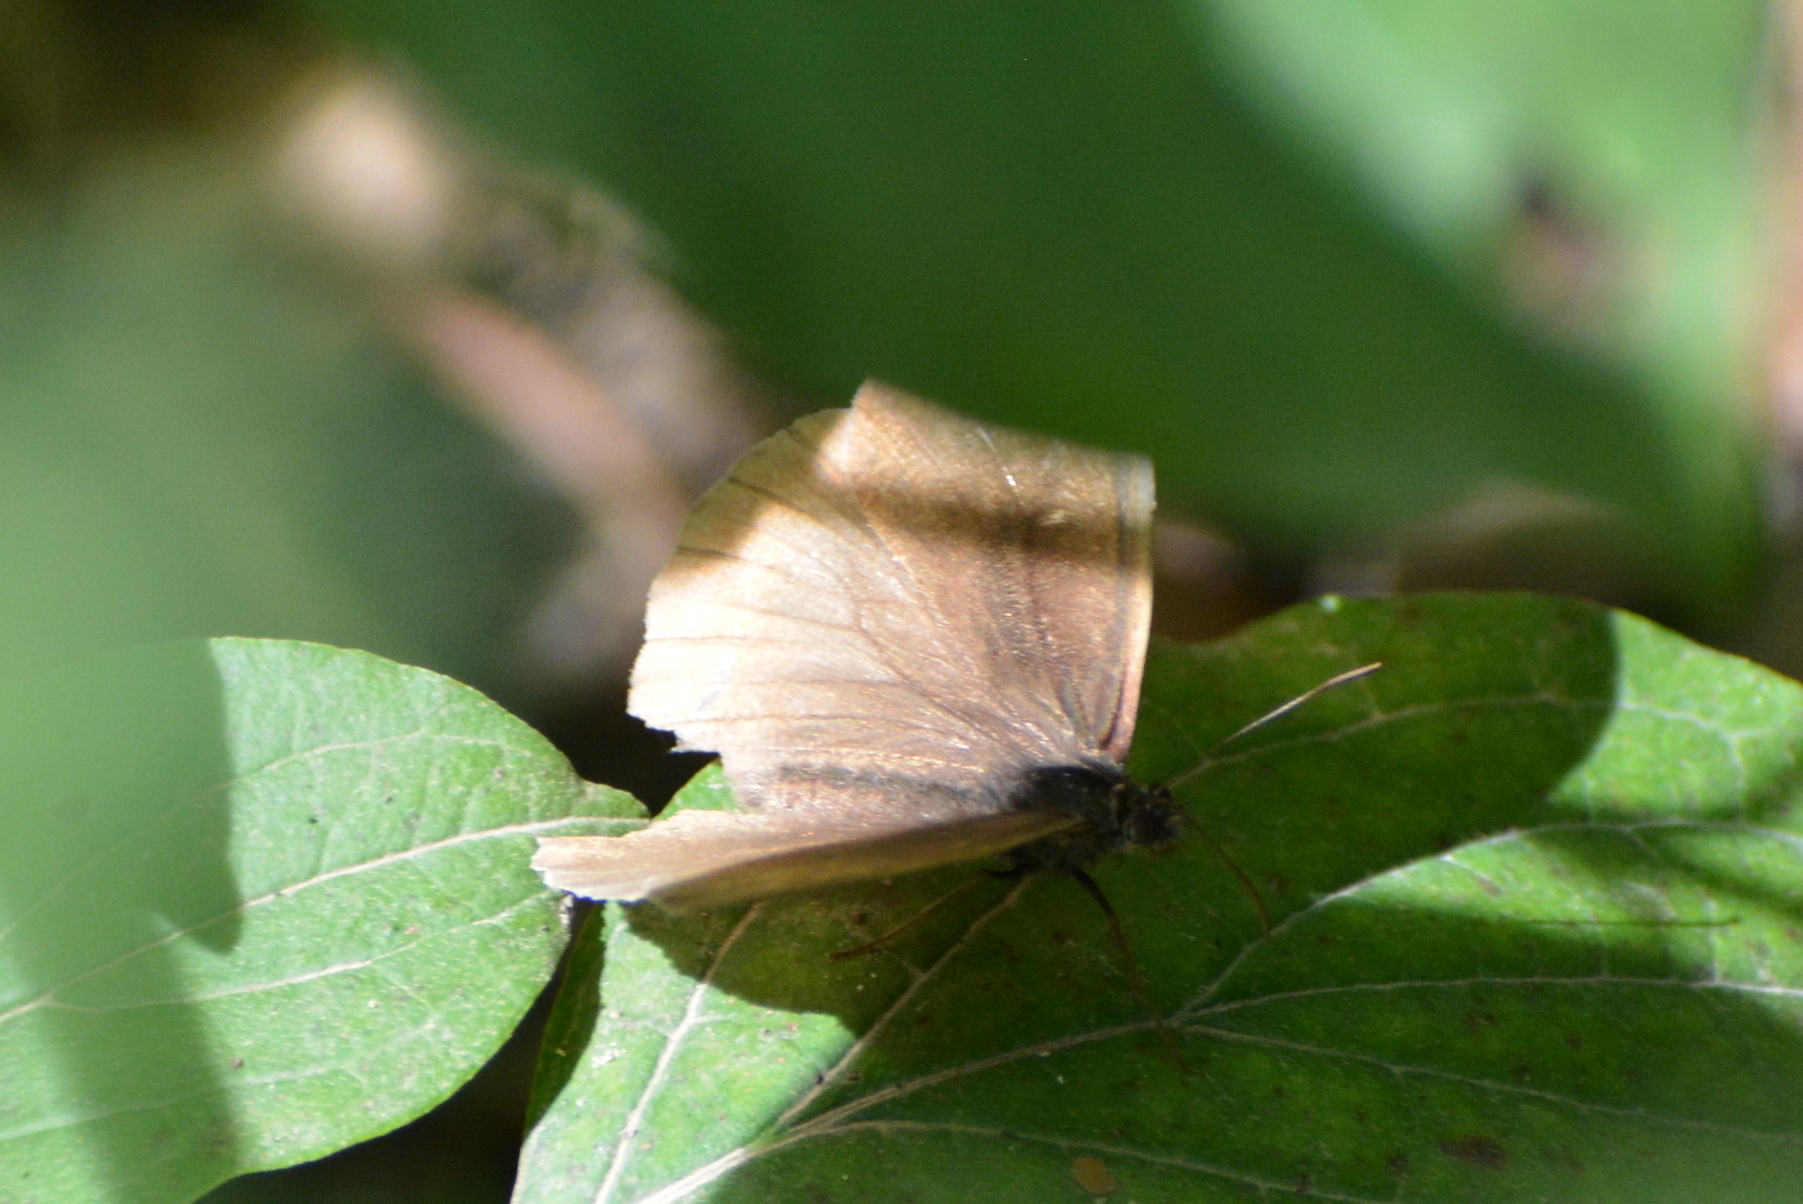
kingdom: Animalia
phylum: Arthropoda
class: Insecta
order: Lepidoptera
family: Nymphalidae
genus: Maniola
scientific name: Maniola jurtina
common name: Meadow brown
